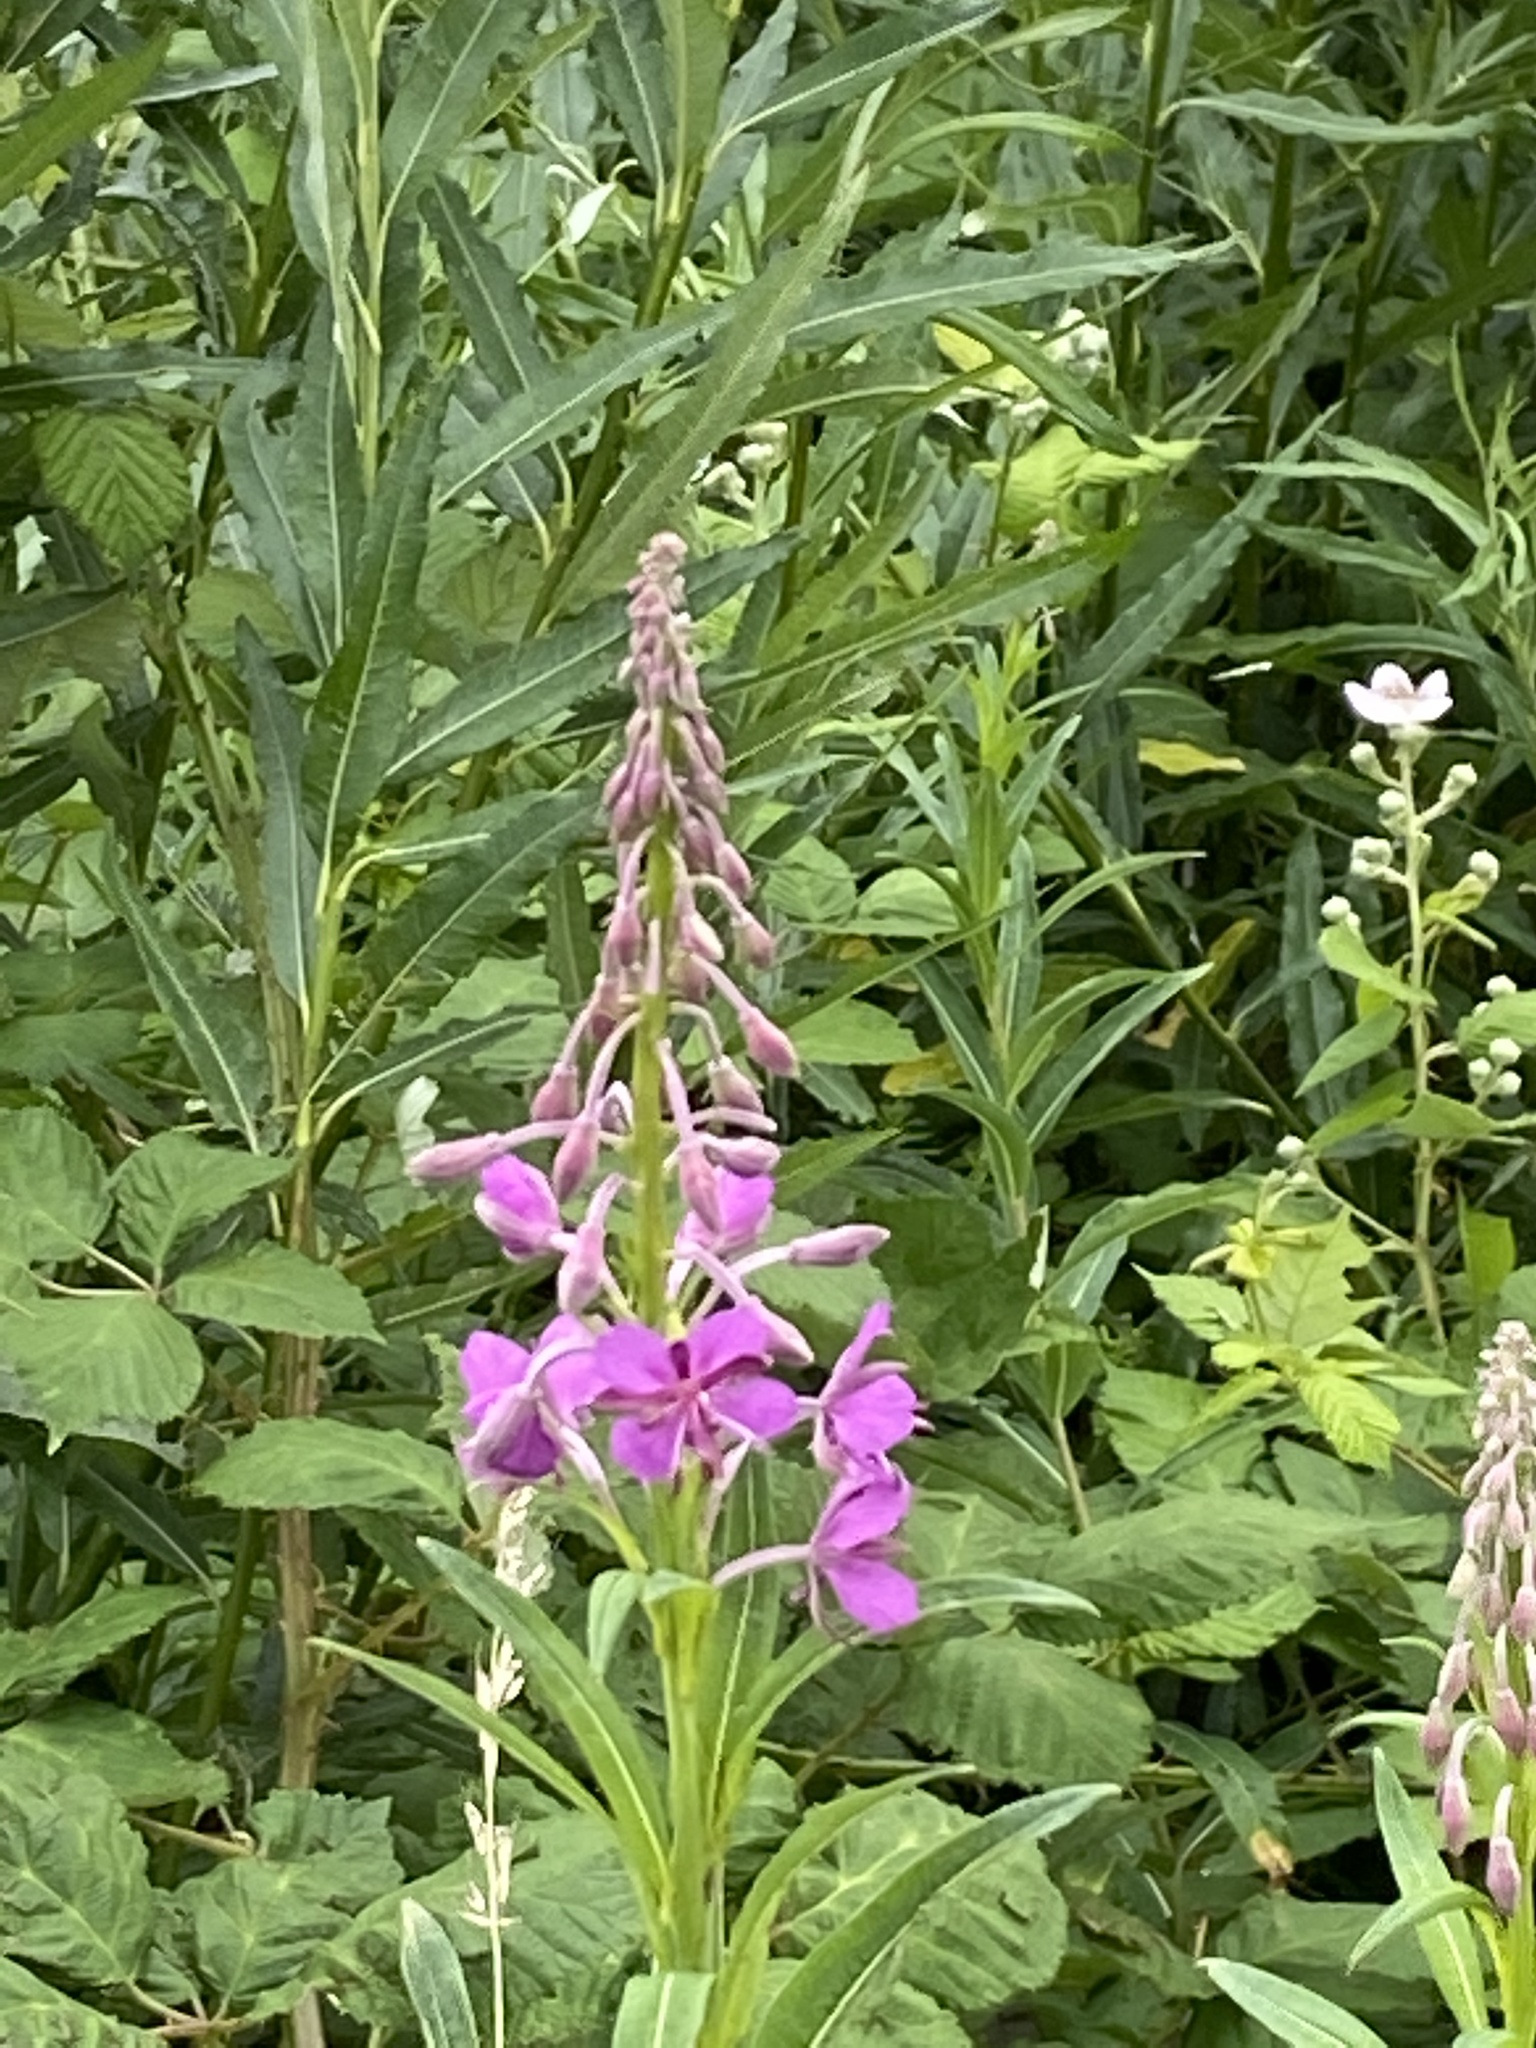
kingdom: Plantae
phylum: Tracheophyta
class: Magnoliopsida
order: Myrtales
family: Onagraceae
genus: Chamaenerion
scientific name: Chamaenerion angustifolium
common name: Fireweed
